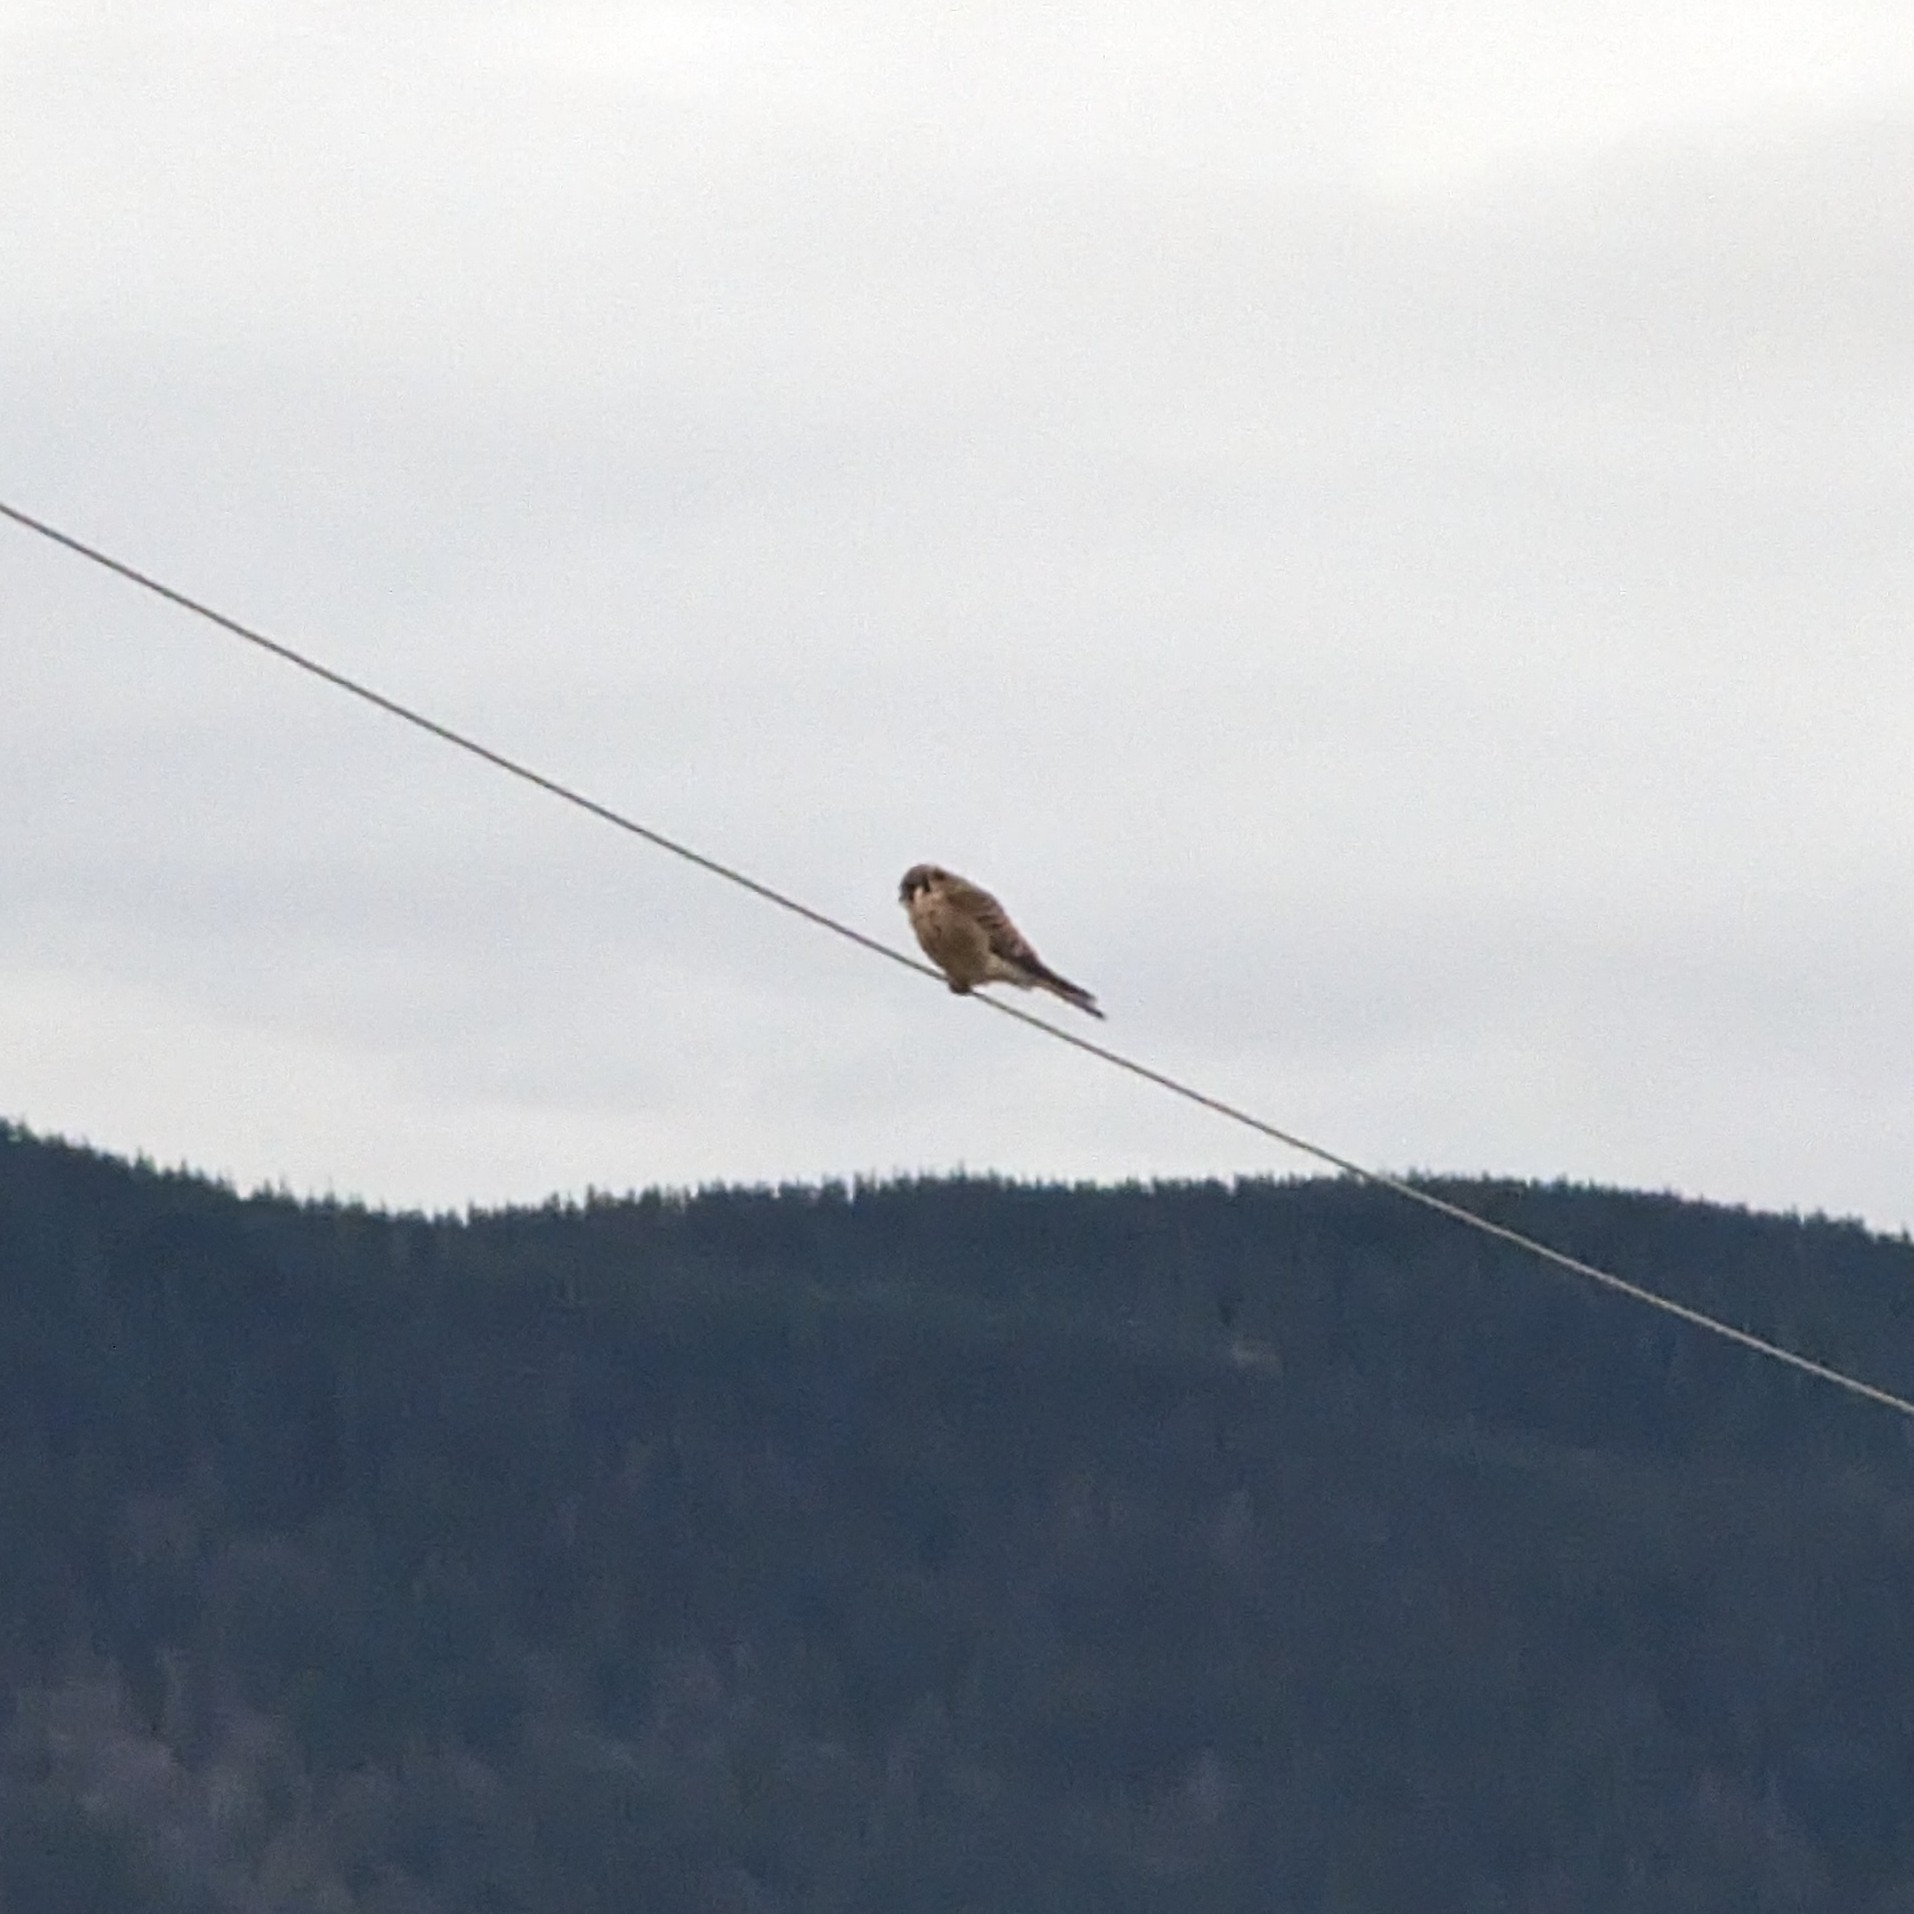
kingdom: Animalia
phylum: Chordata
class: Aves
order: Falconiformes
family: Falconidae
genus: Falco
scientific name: Falco sparverius
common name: American kestrel
